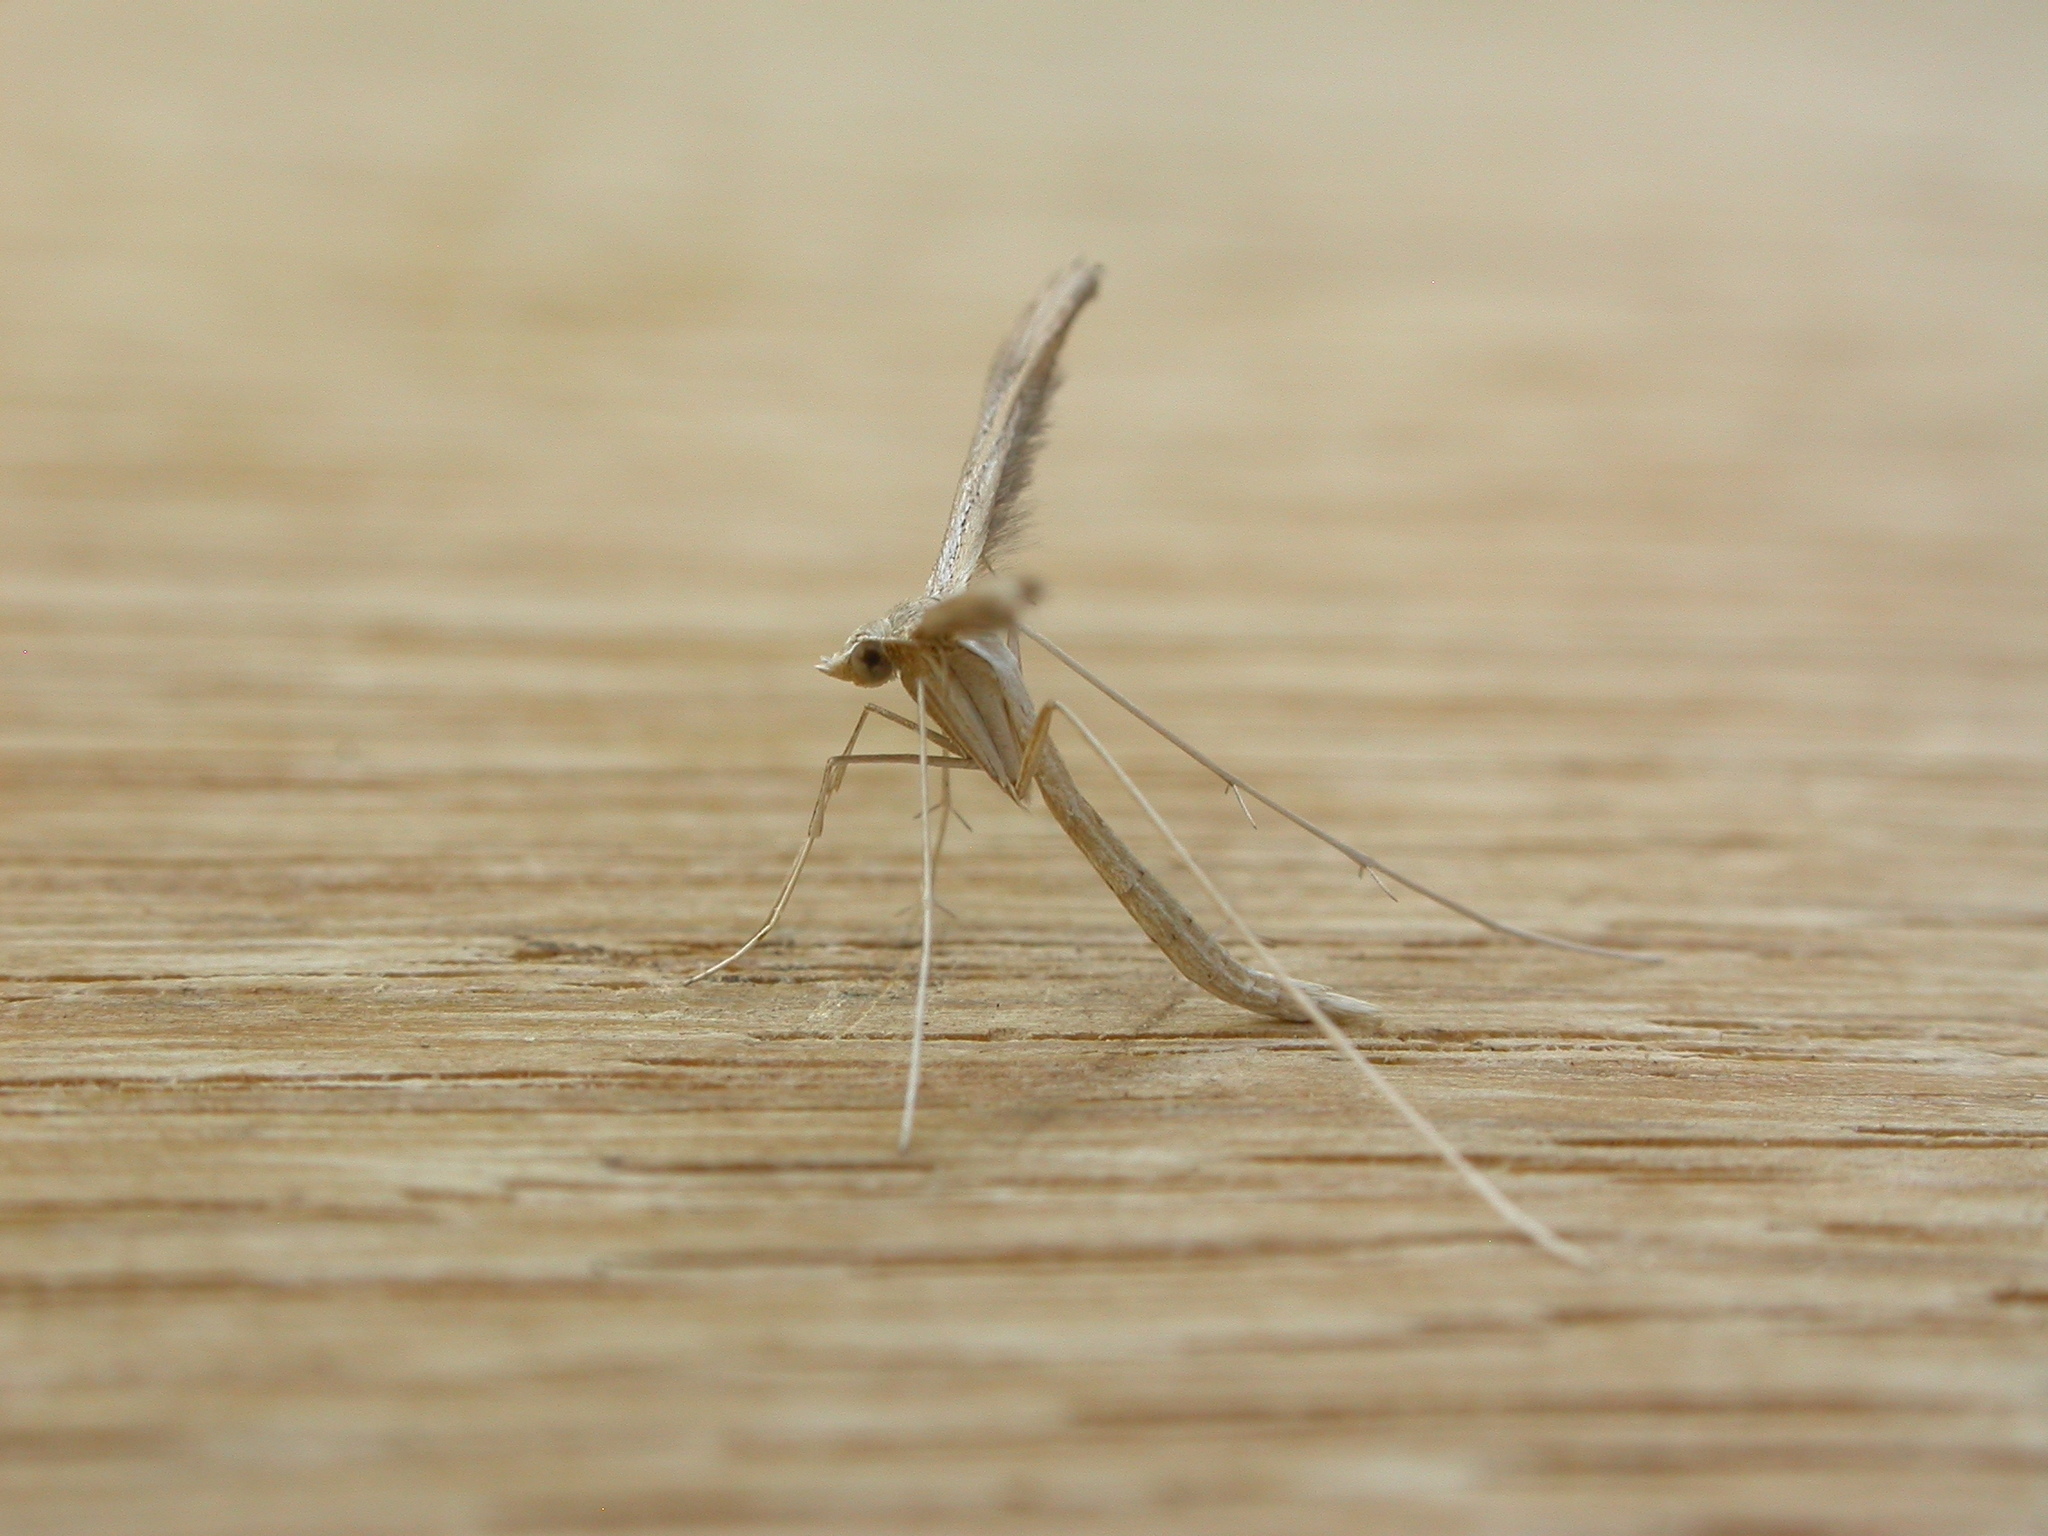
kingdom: Animalia
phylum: Arthropoda
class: Insecta
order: Lepidoptera
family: Pterophoridae
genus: Stenoptilia
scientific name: Stenoptilia zophodactylus
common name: Dowdy plume
